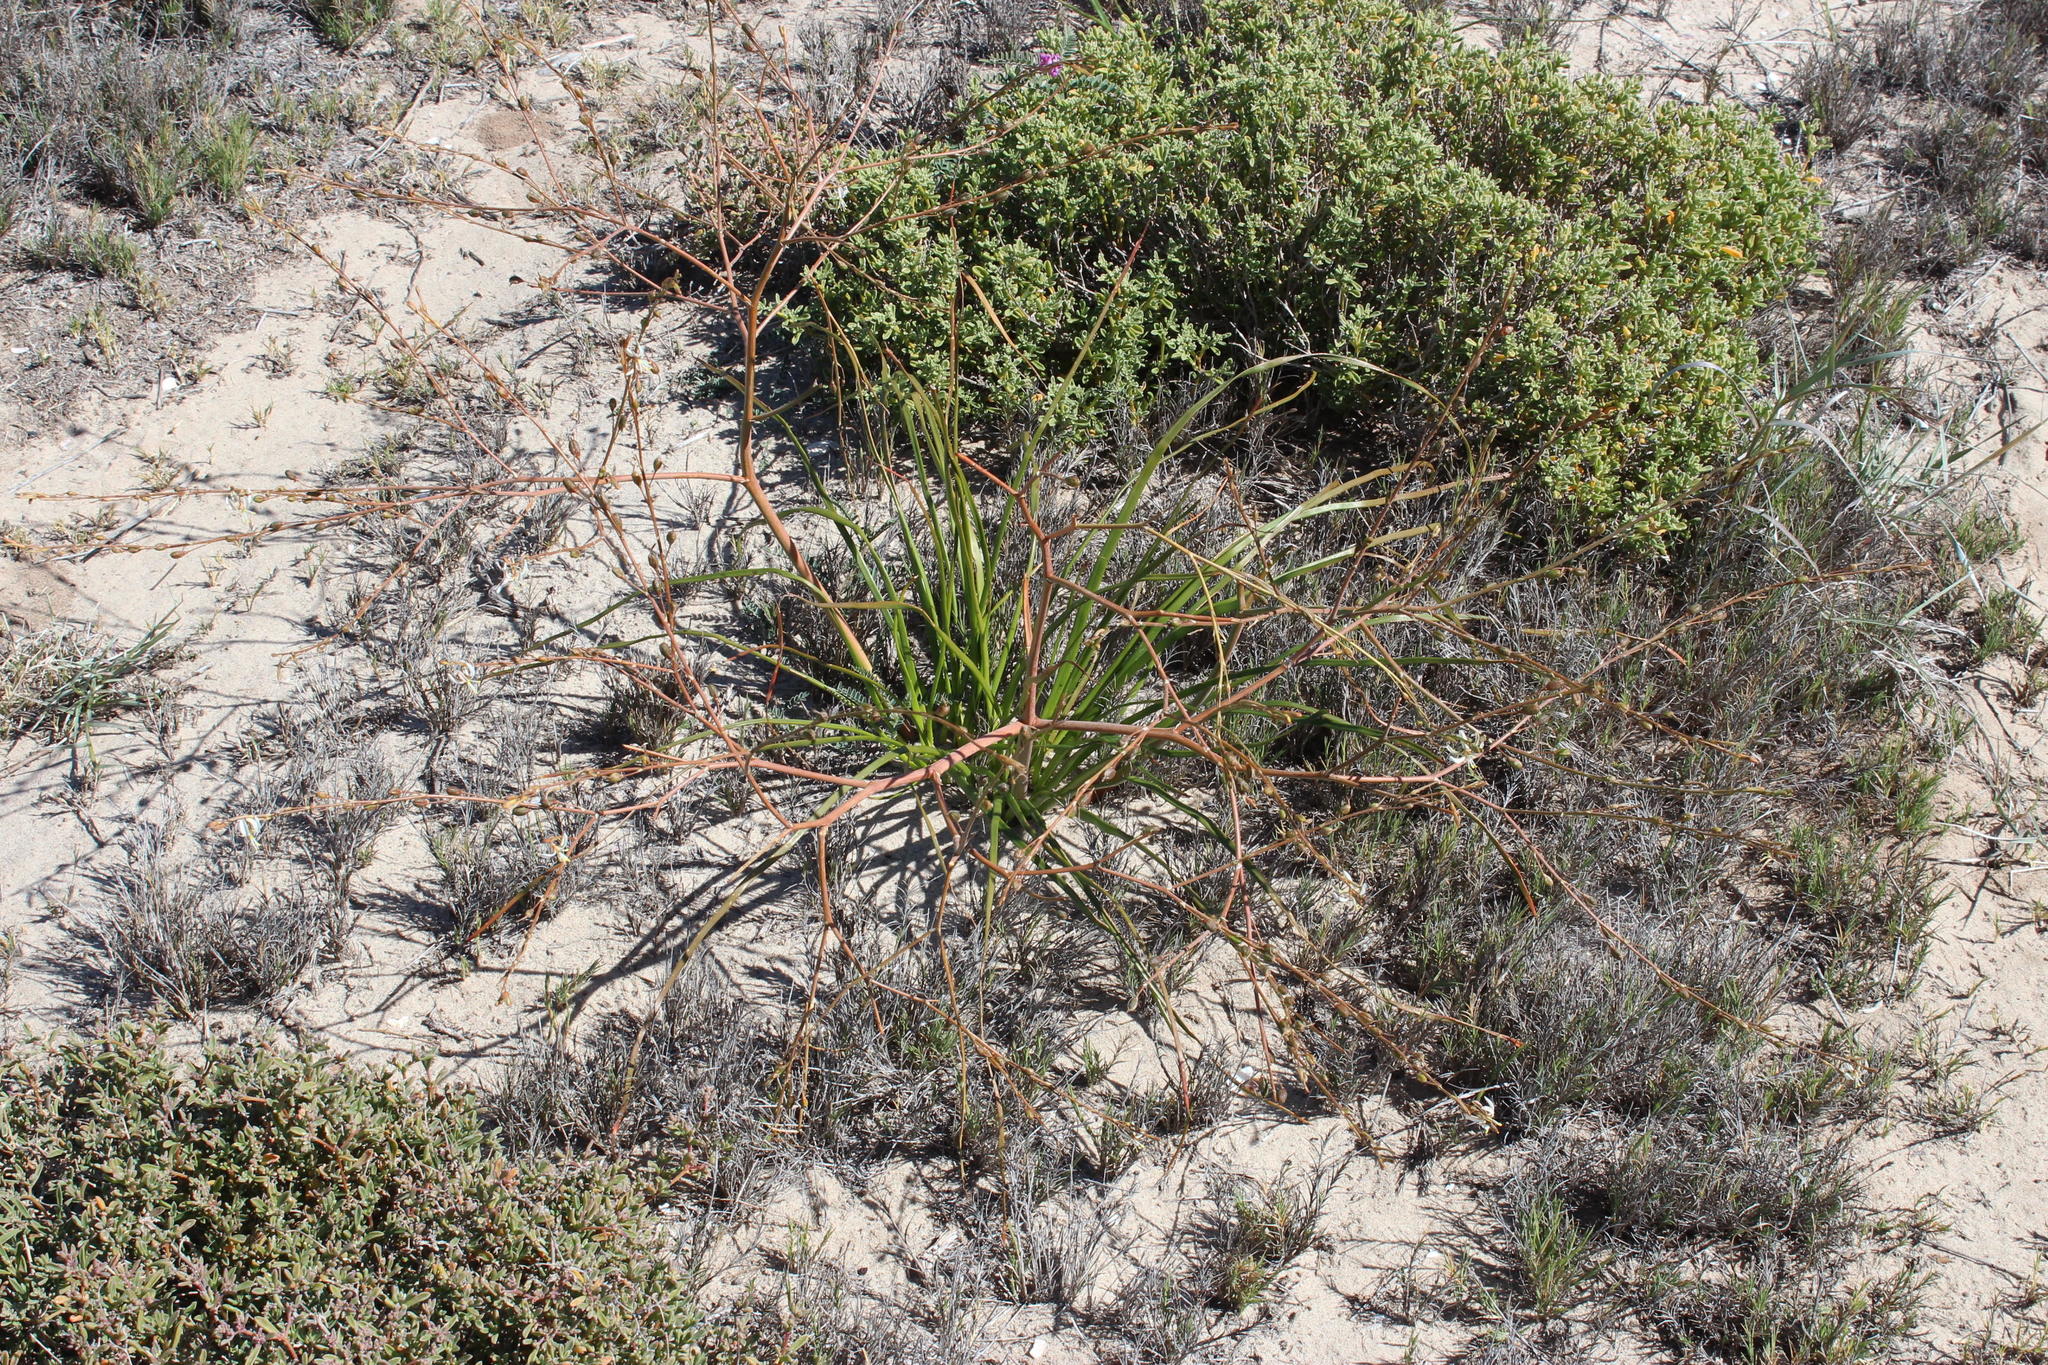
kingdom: Plantae
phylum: Tracheophyta
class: Liliopsida
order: Asparagales
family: Asphodelaceae
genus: Trachyandra
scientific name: Trachyandra divaricata
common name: Dune onionweed
